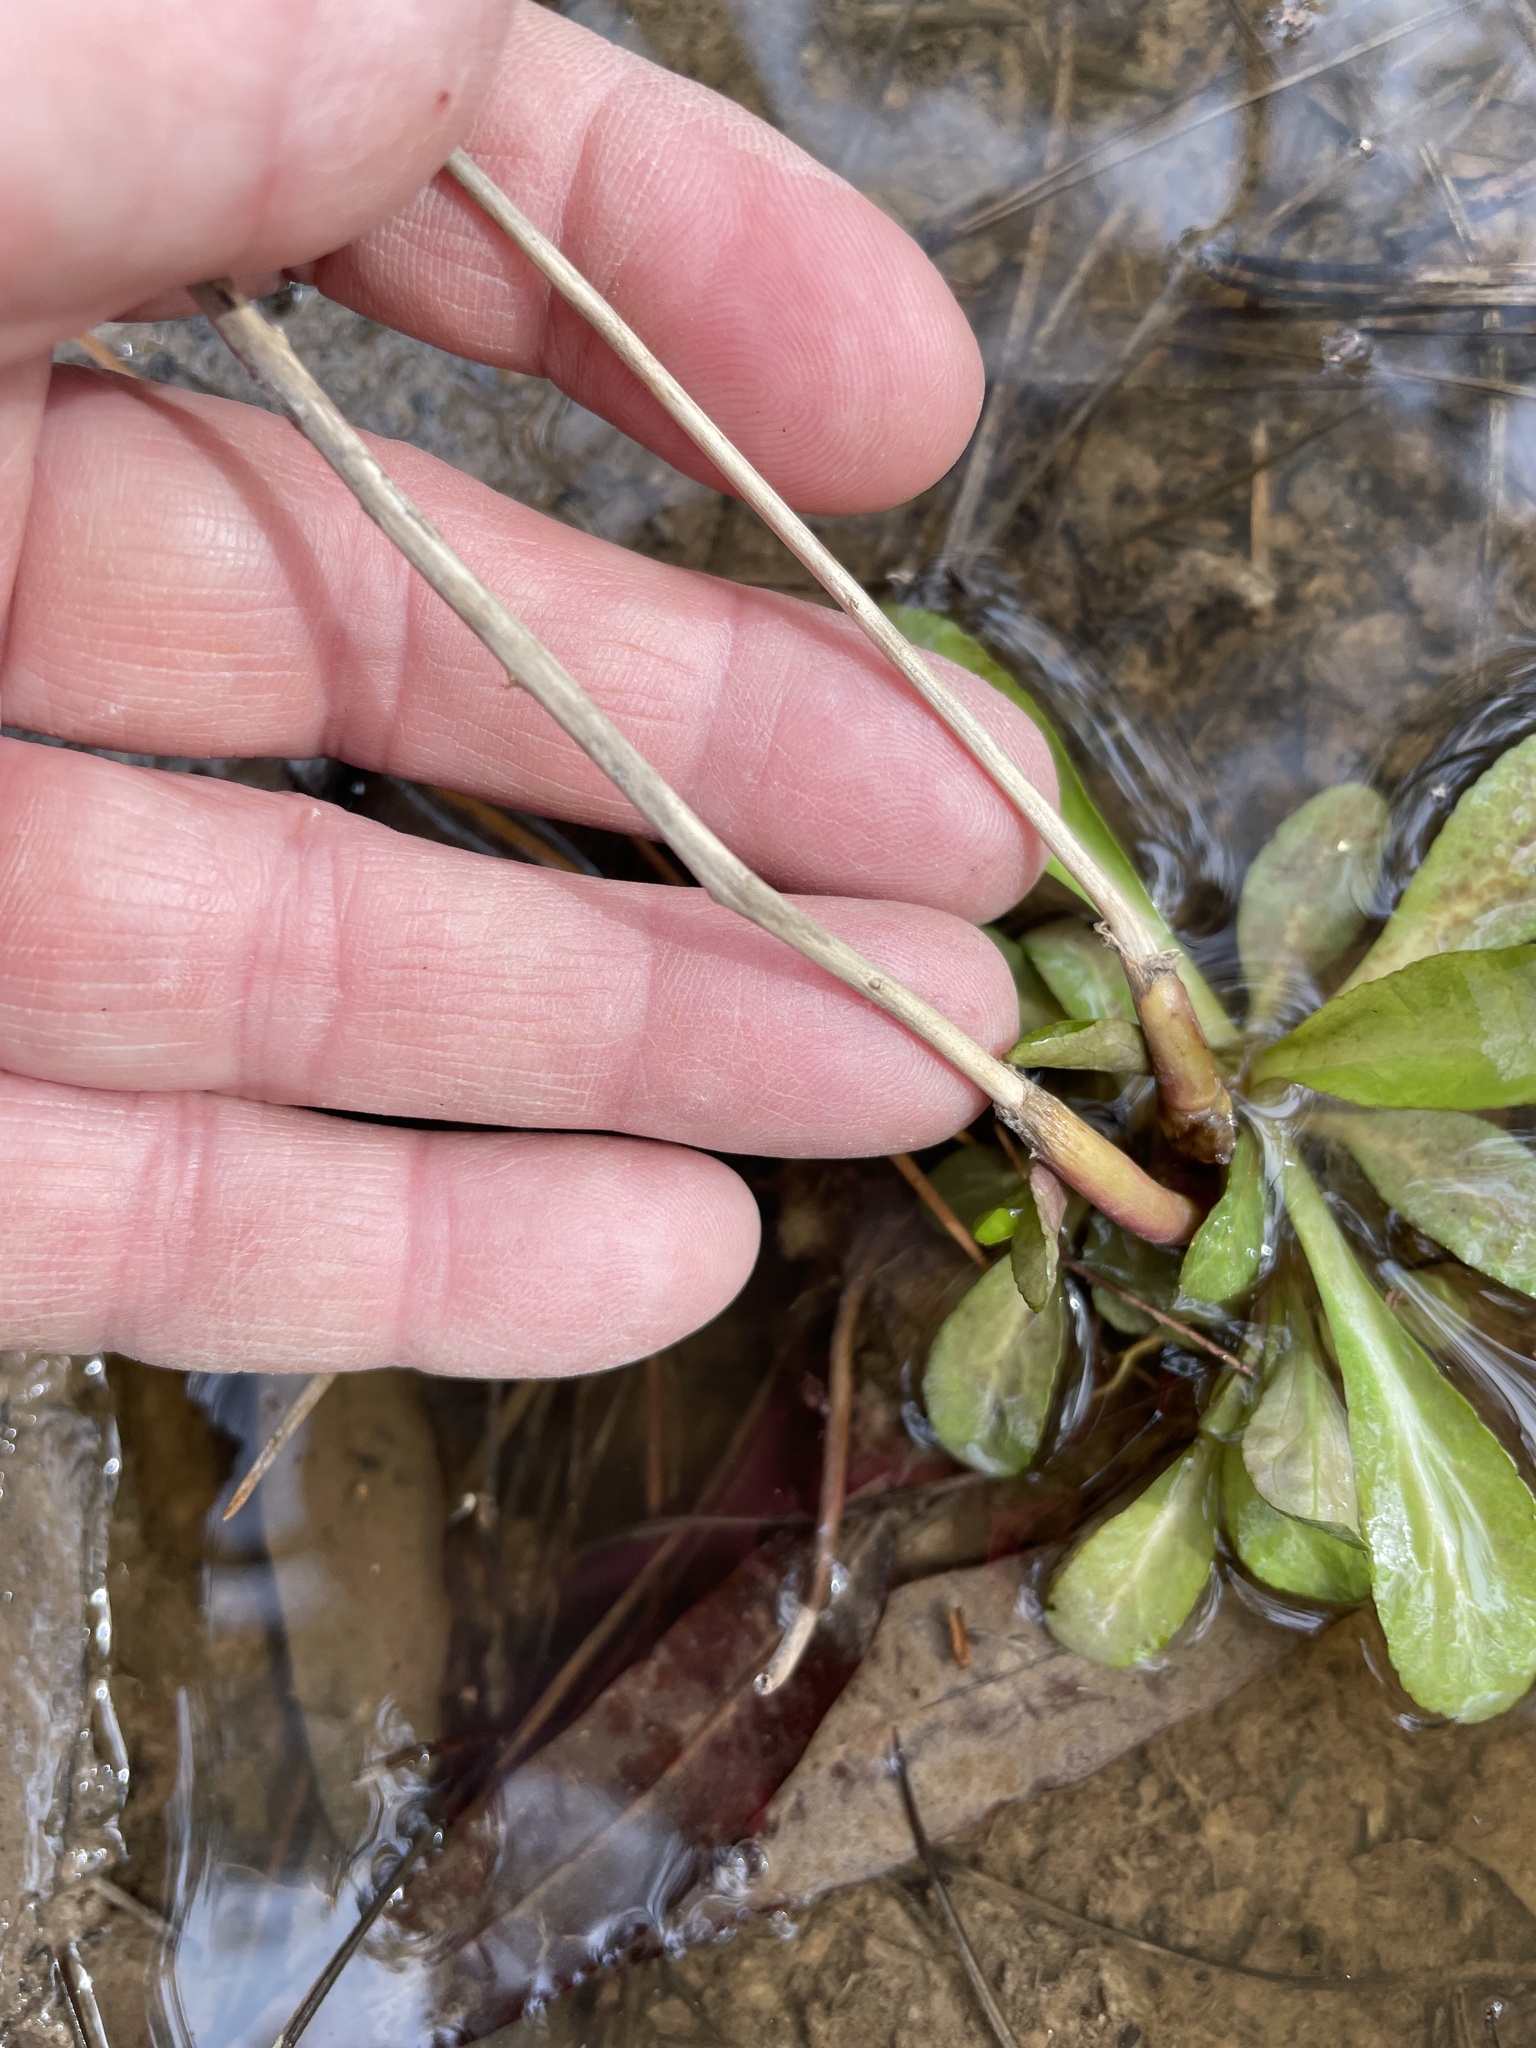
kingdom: Plantae
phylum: Tracheophyta
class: Magnoliopsida
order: Asterales
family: Campanulaceae
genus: Lobelia
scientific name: Lobelia cardinalis
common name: Cardinal flower
